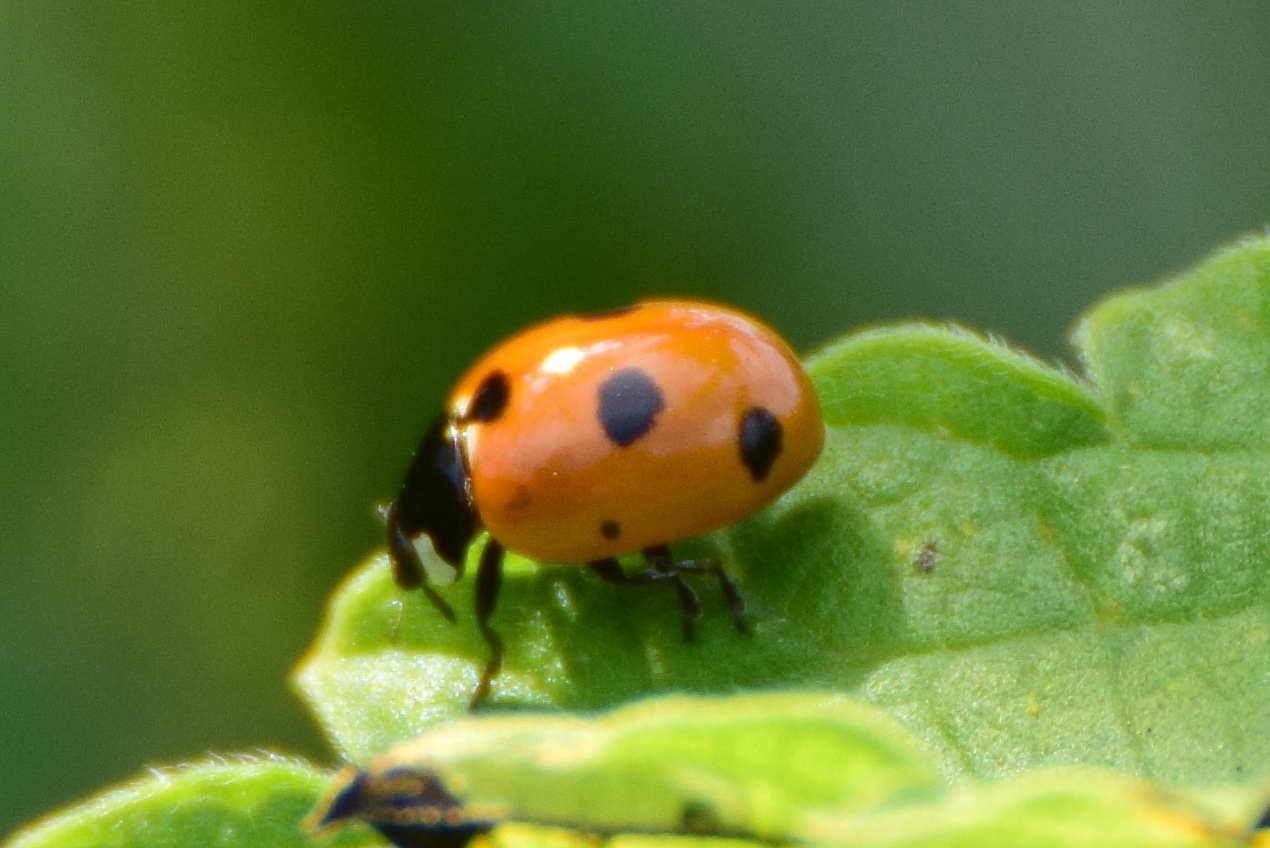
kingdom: Animalia
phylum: Arthropoda
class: Insecta
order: Coleoptera
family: Coccinellidae
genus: Coccinella
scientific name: Coccinella magnifica
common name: Scarce 7-spot ladybird
